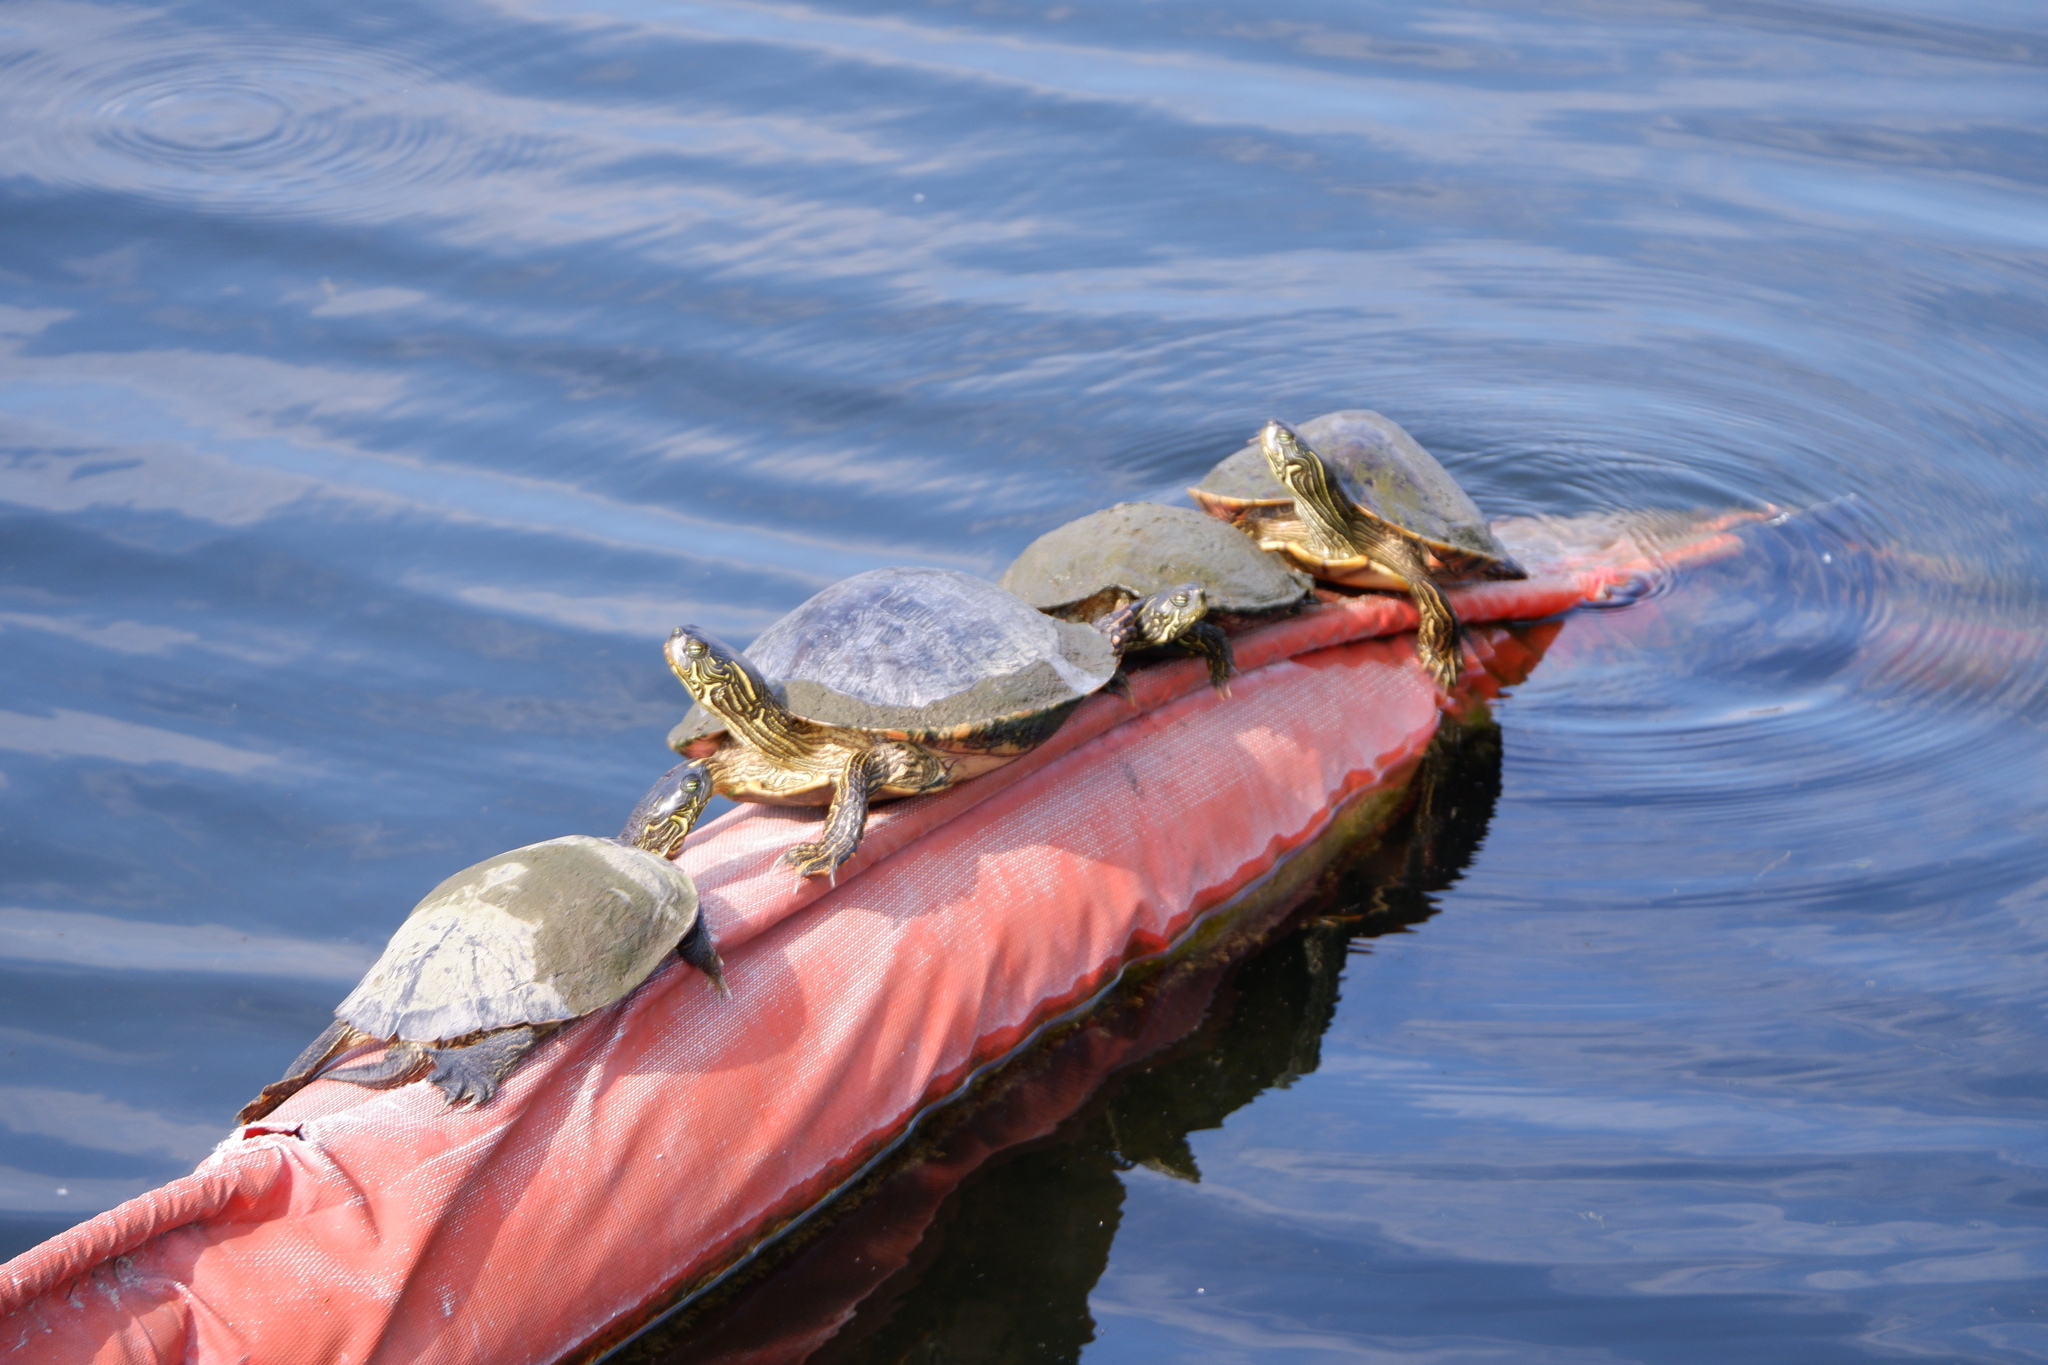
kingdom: Animalia
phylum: Chordata
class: Testudines
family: Emydidae
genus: Pseudemys
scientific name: Pseudemys texana
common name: Texas river cooter
